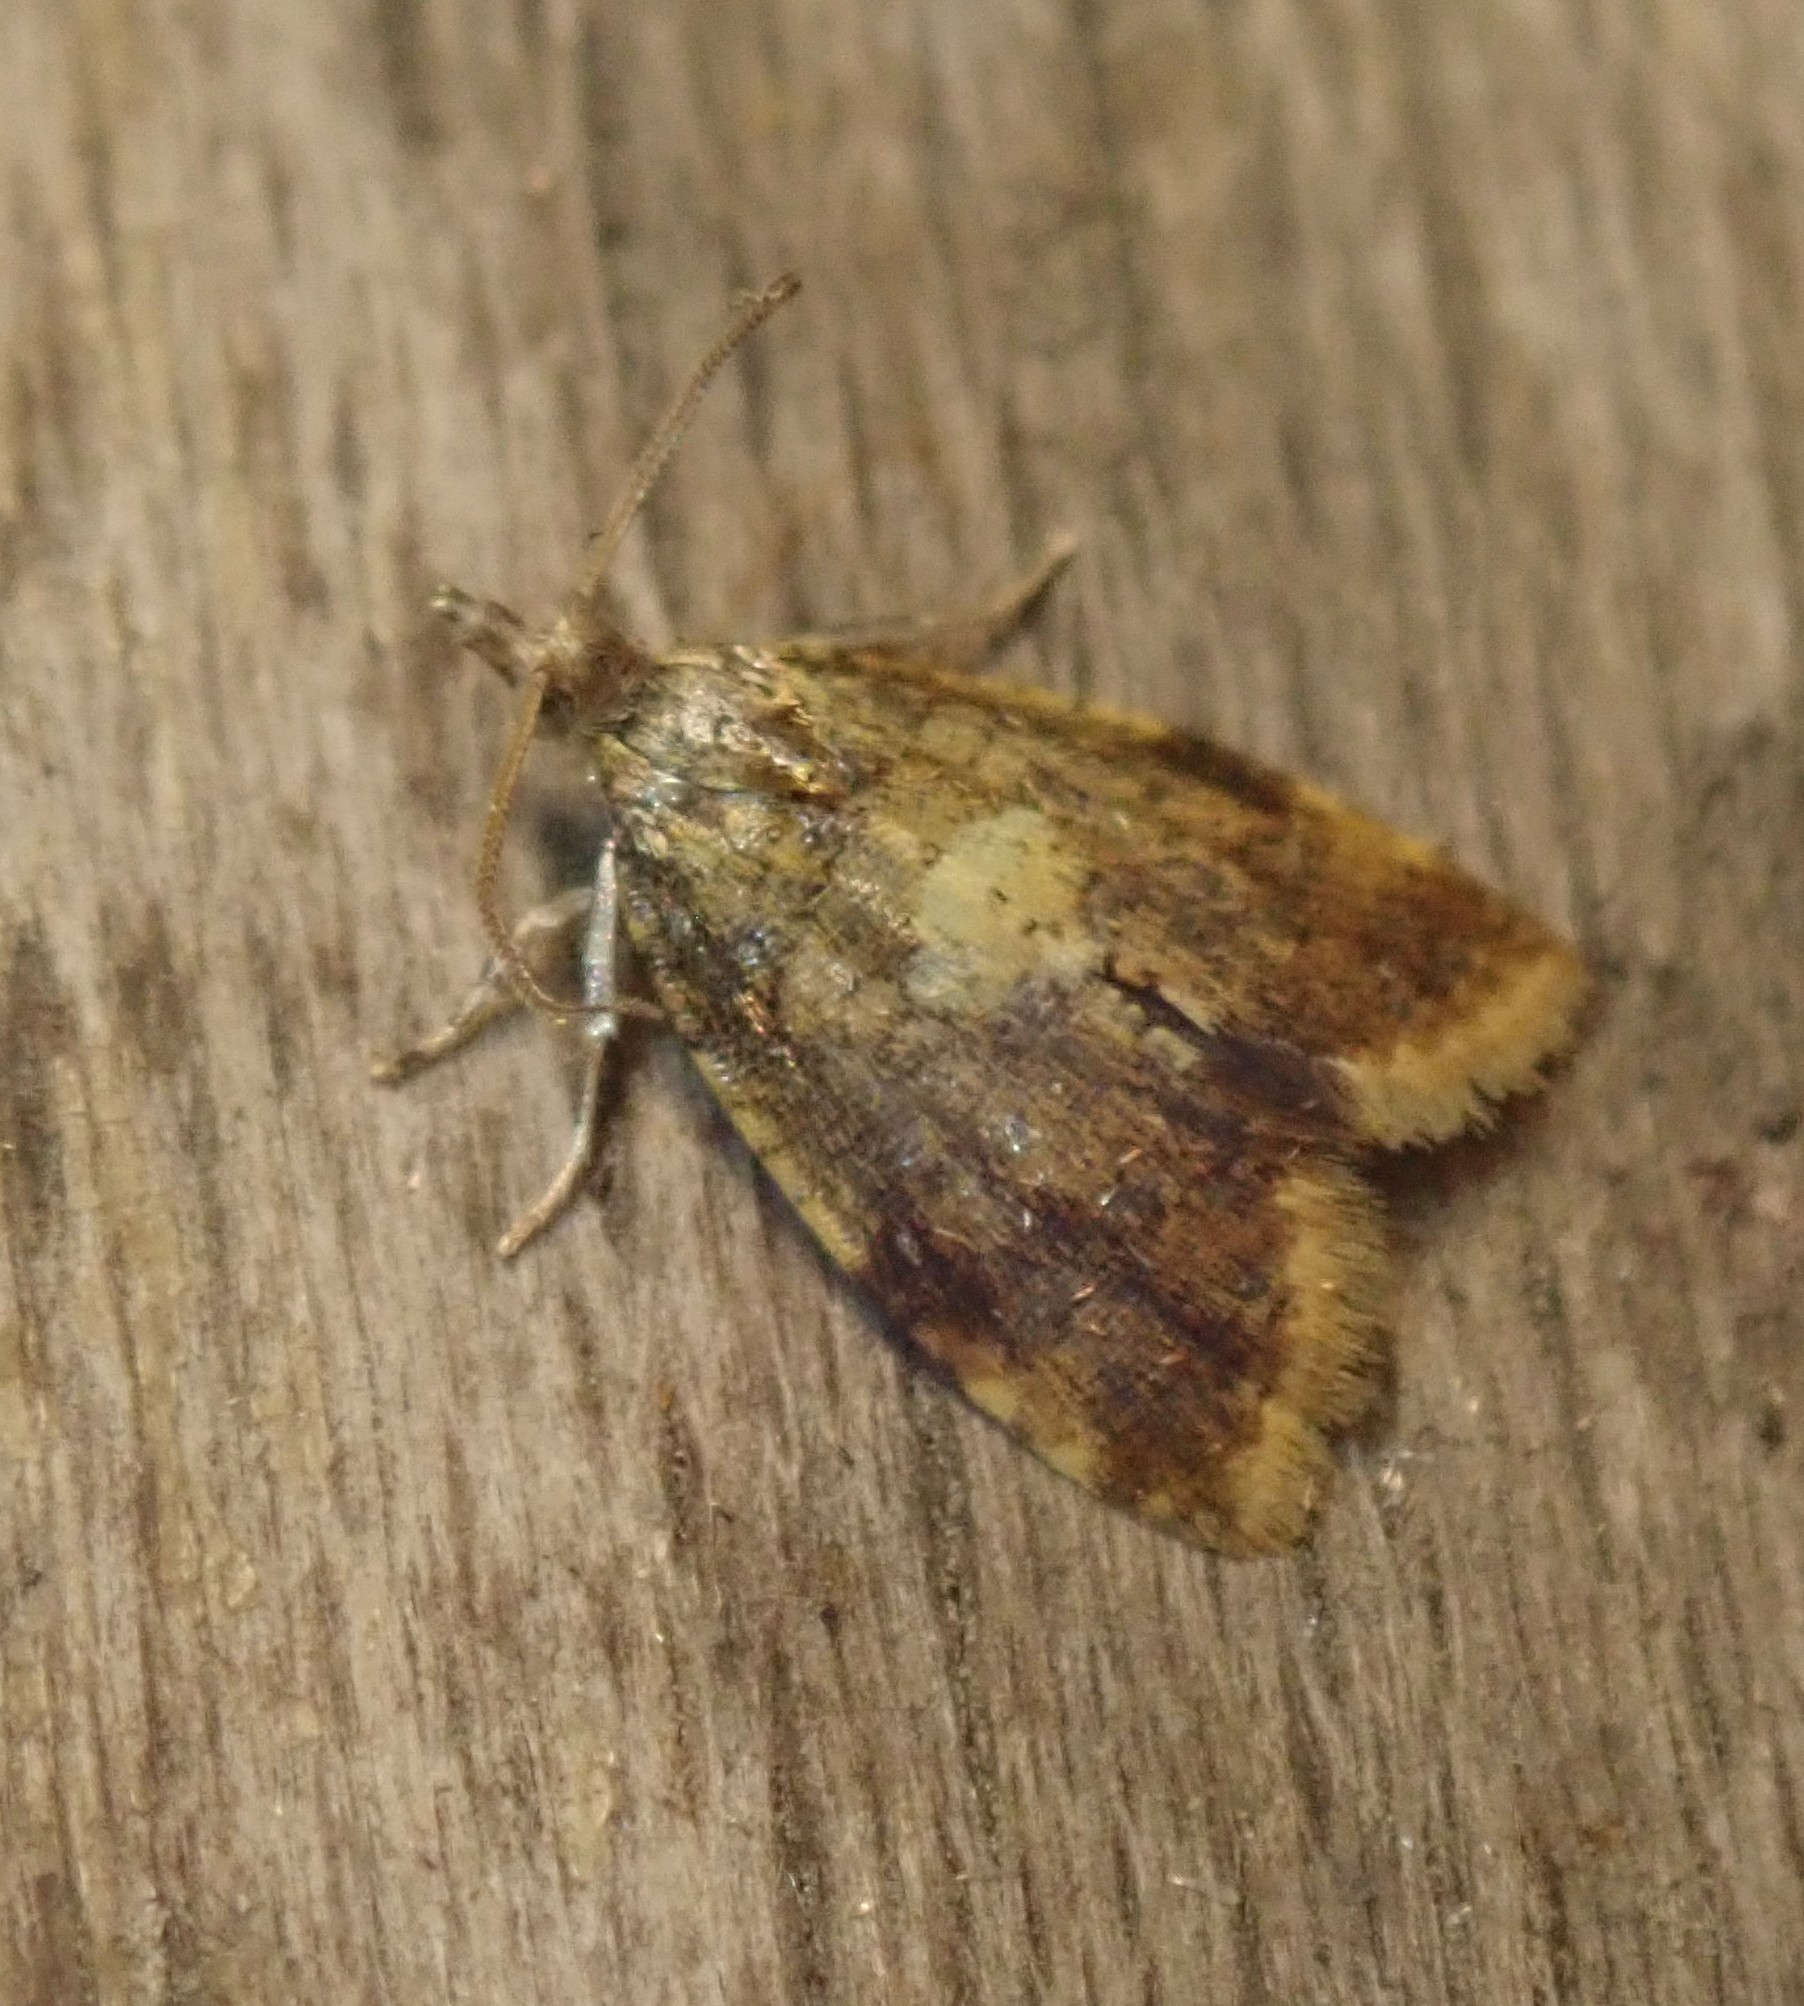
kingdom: Animalia
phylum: Arthropoda
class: Insecta
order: Lepidoptera
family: Tortricidae
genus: Pseudargyrotoza
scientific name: Pseudargyrotoza conwagana
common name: Yellow-spot twist
